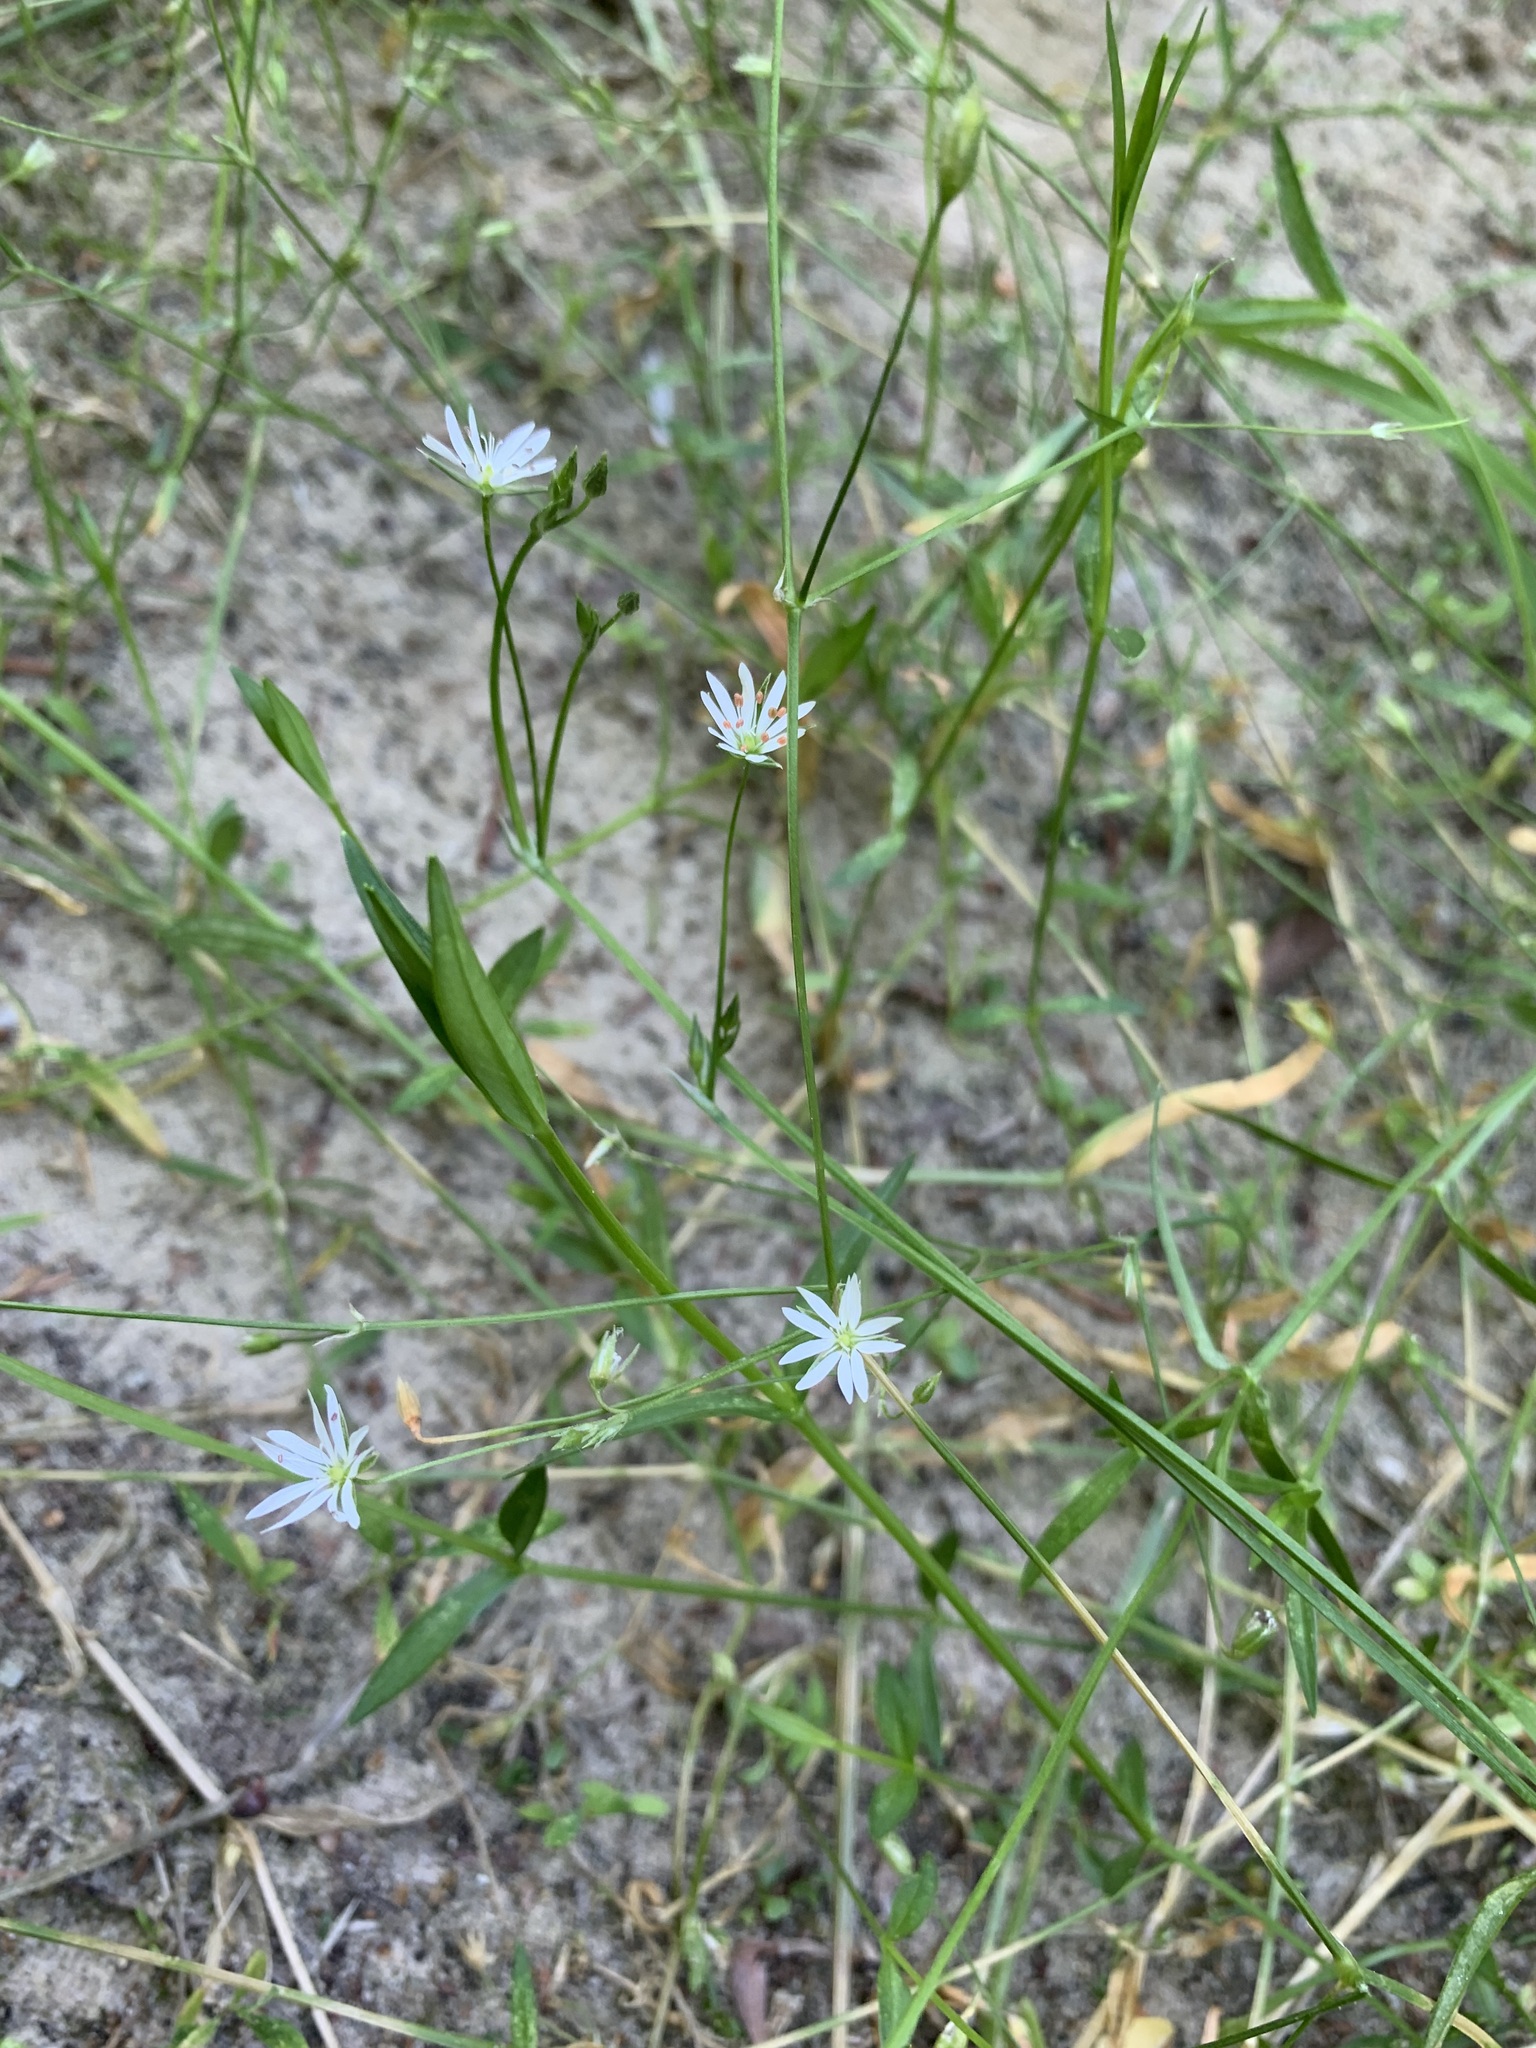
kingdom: Plantae
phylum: Tracheophyta
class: Magnoliopsida
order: Caryophyllales
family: Caryophyllaceae
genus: Stellaria
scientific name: Stellaria graminea
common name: Grass-like starwort
